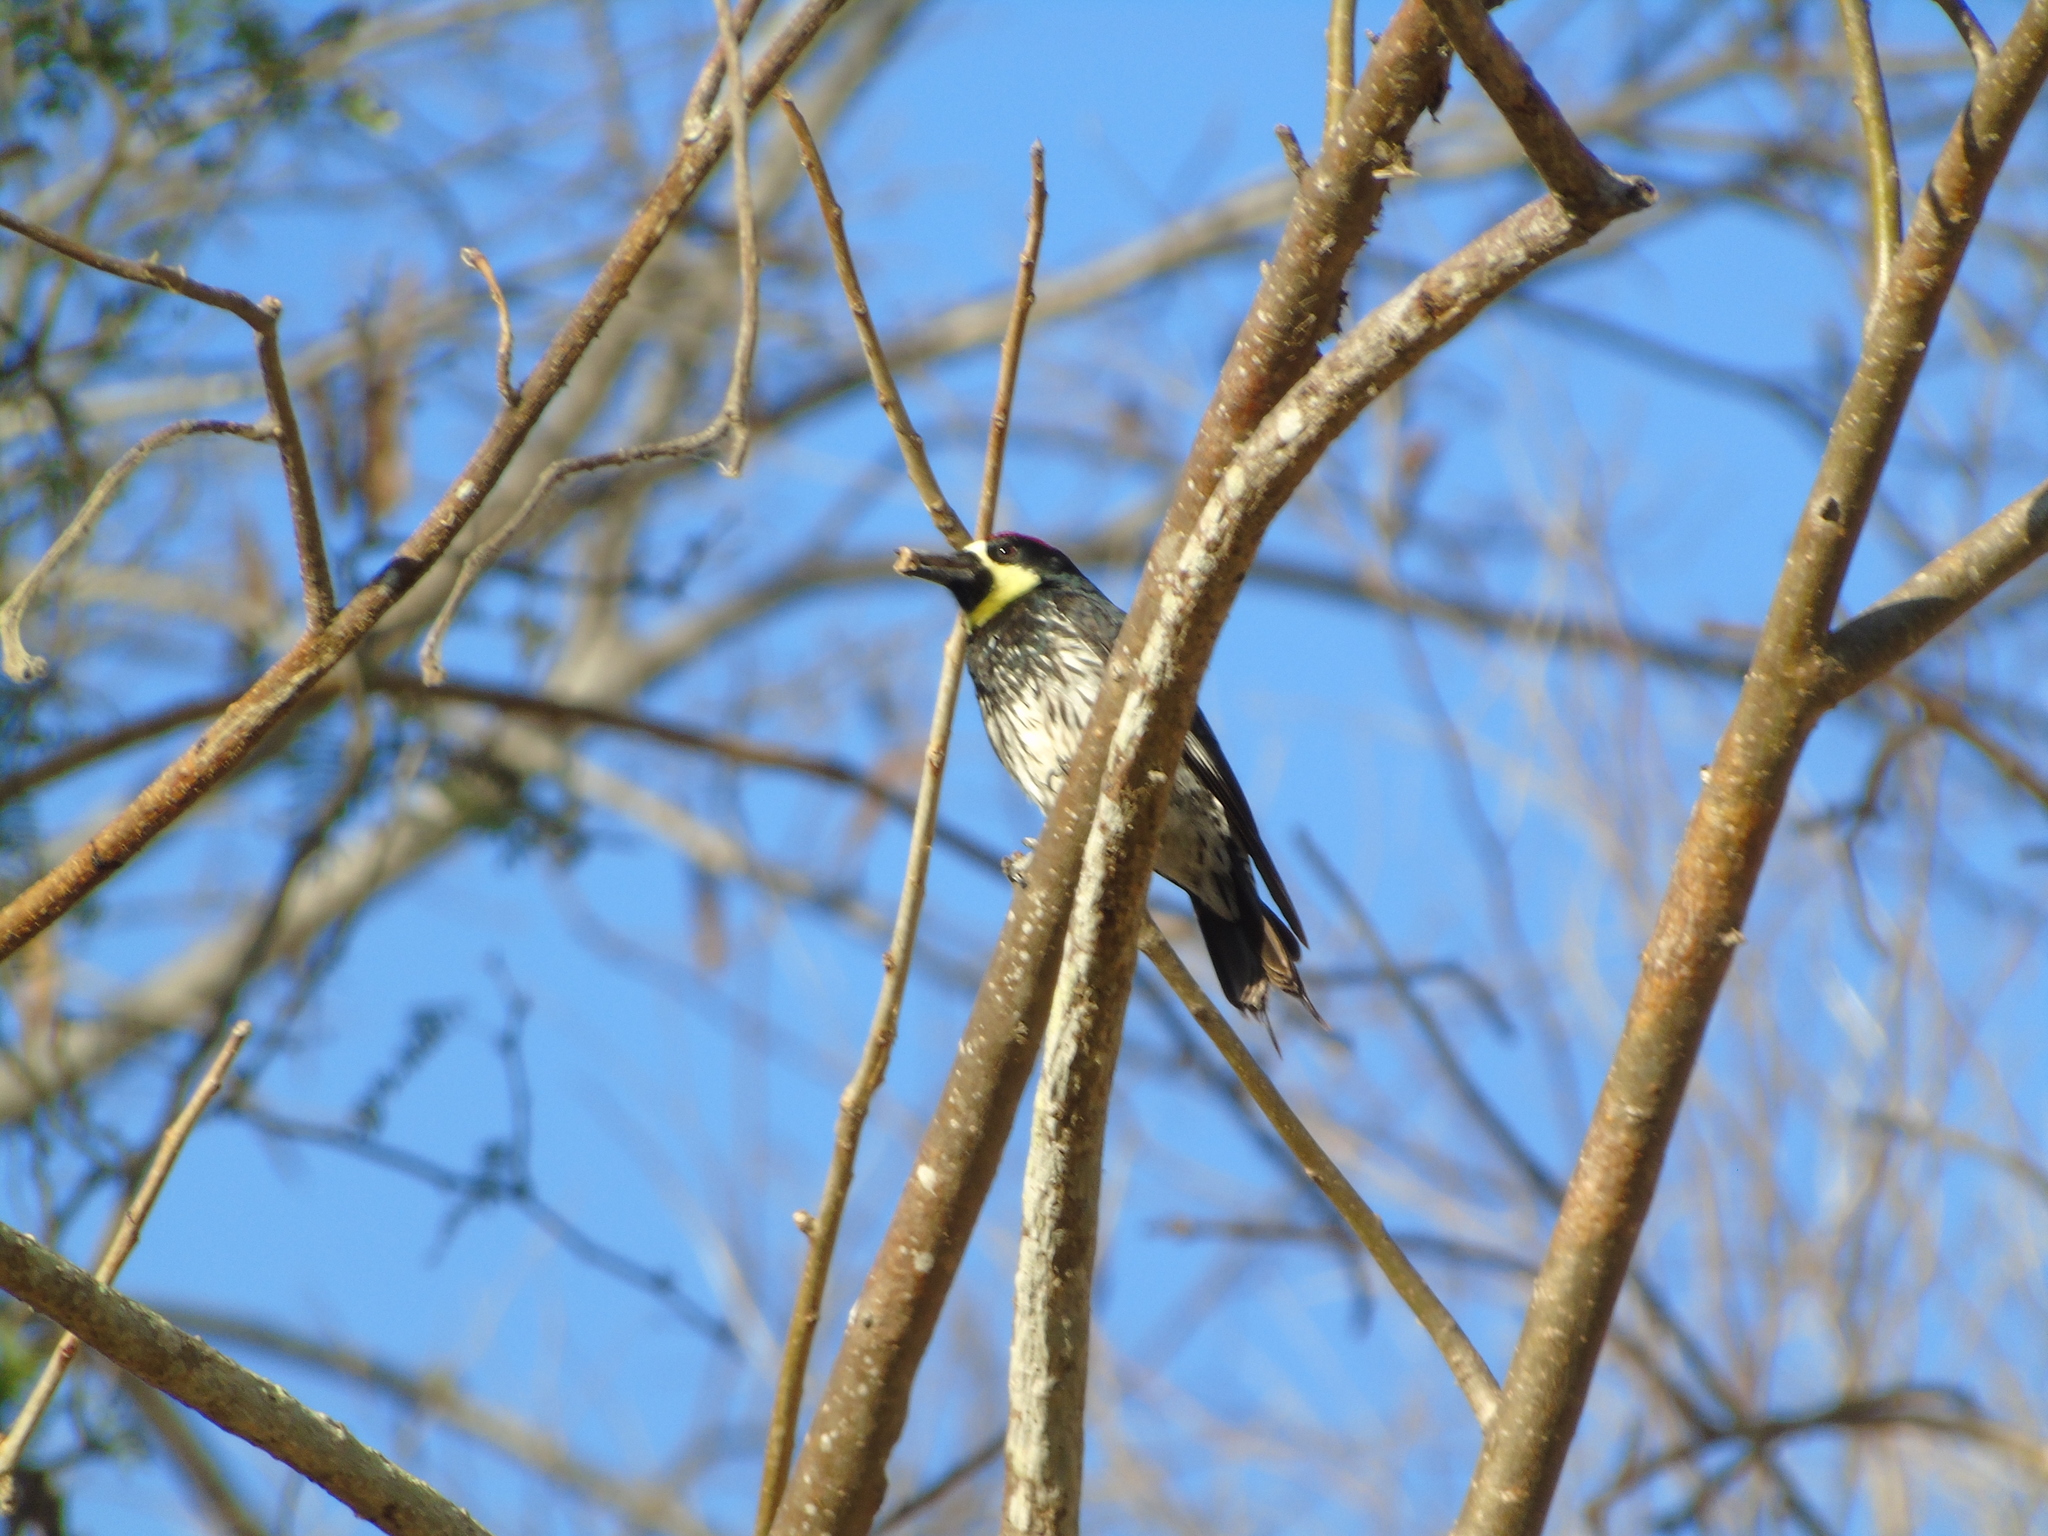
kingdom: Animalia
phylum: Chordata
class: Aves
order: Piciformes
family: Picidae
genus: Melanerpes
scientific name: Melanerpes formicivorus
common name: Acorn woodpecker
